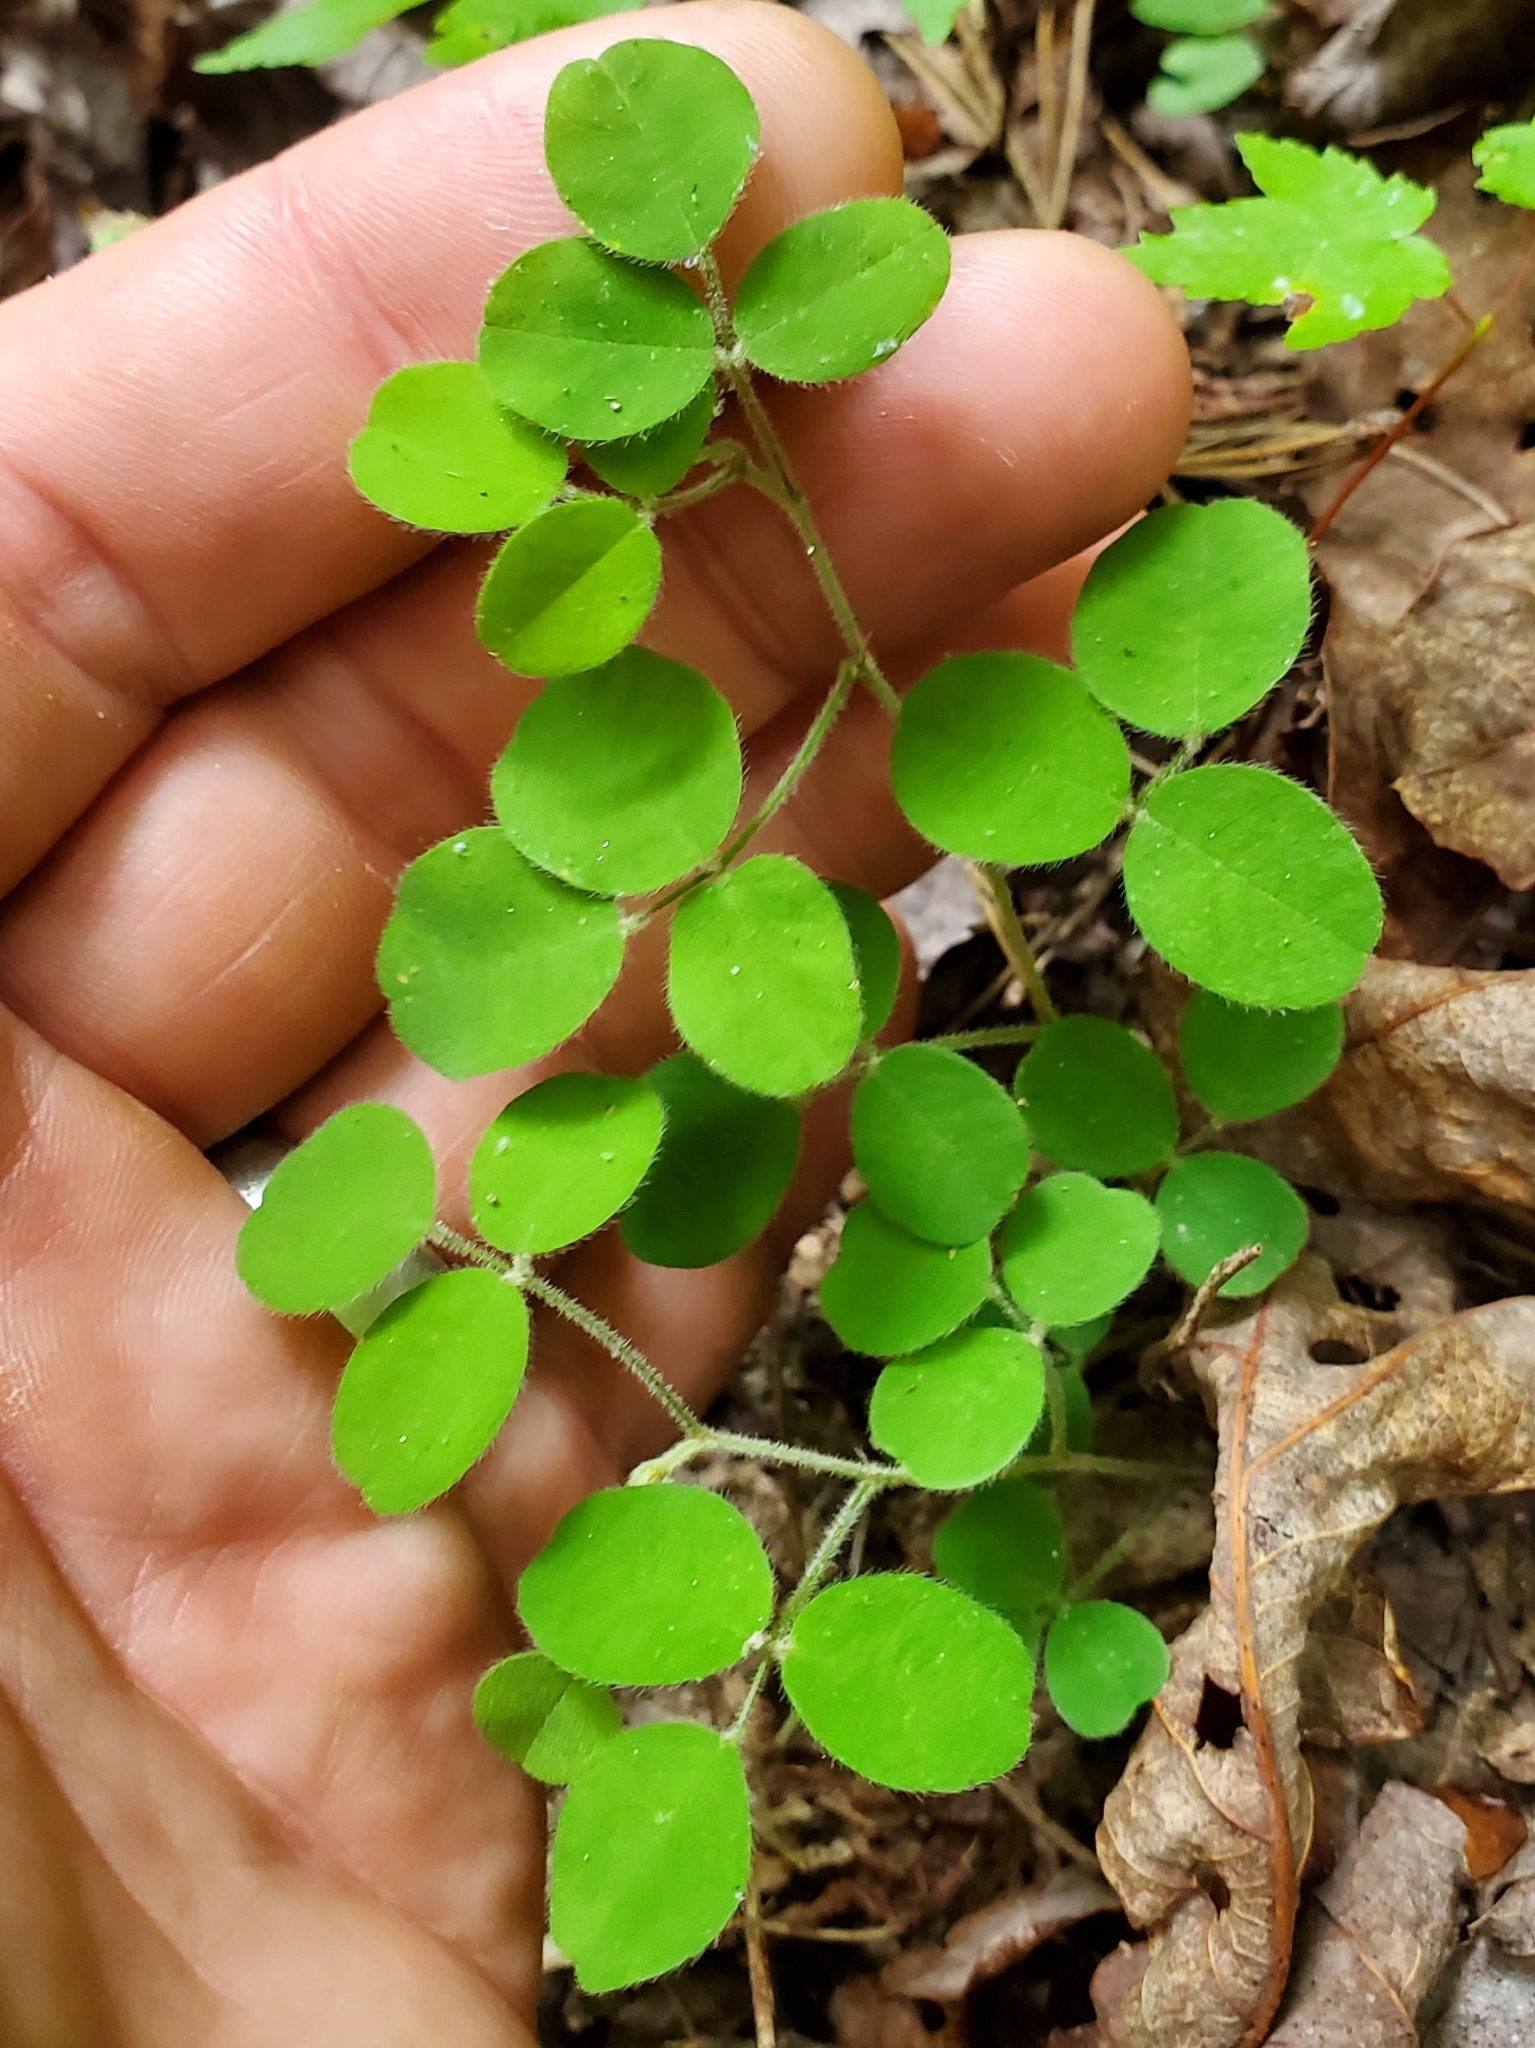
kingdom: Plantae
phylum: Tracheophyta
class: Magnoliopsida
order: Fabales
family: Fabaceae
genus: Lespedeza
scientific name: Lespedeza procumbens
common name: Downy trailing bush-clover
